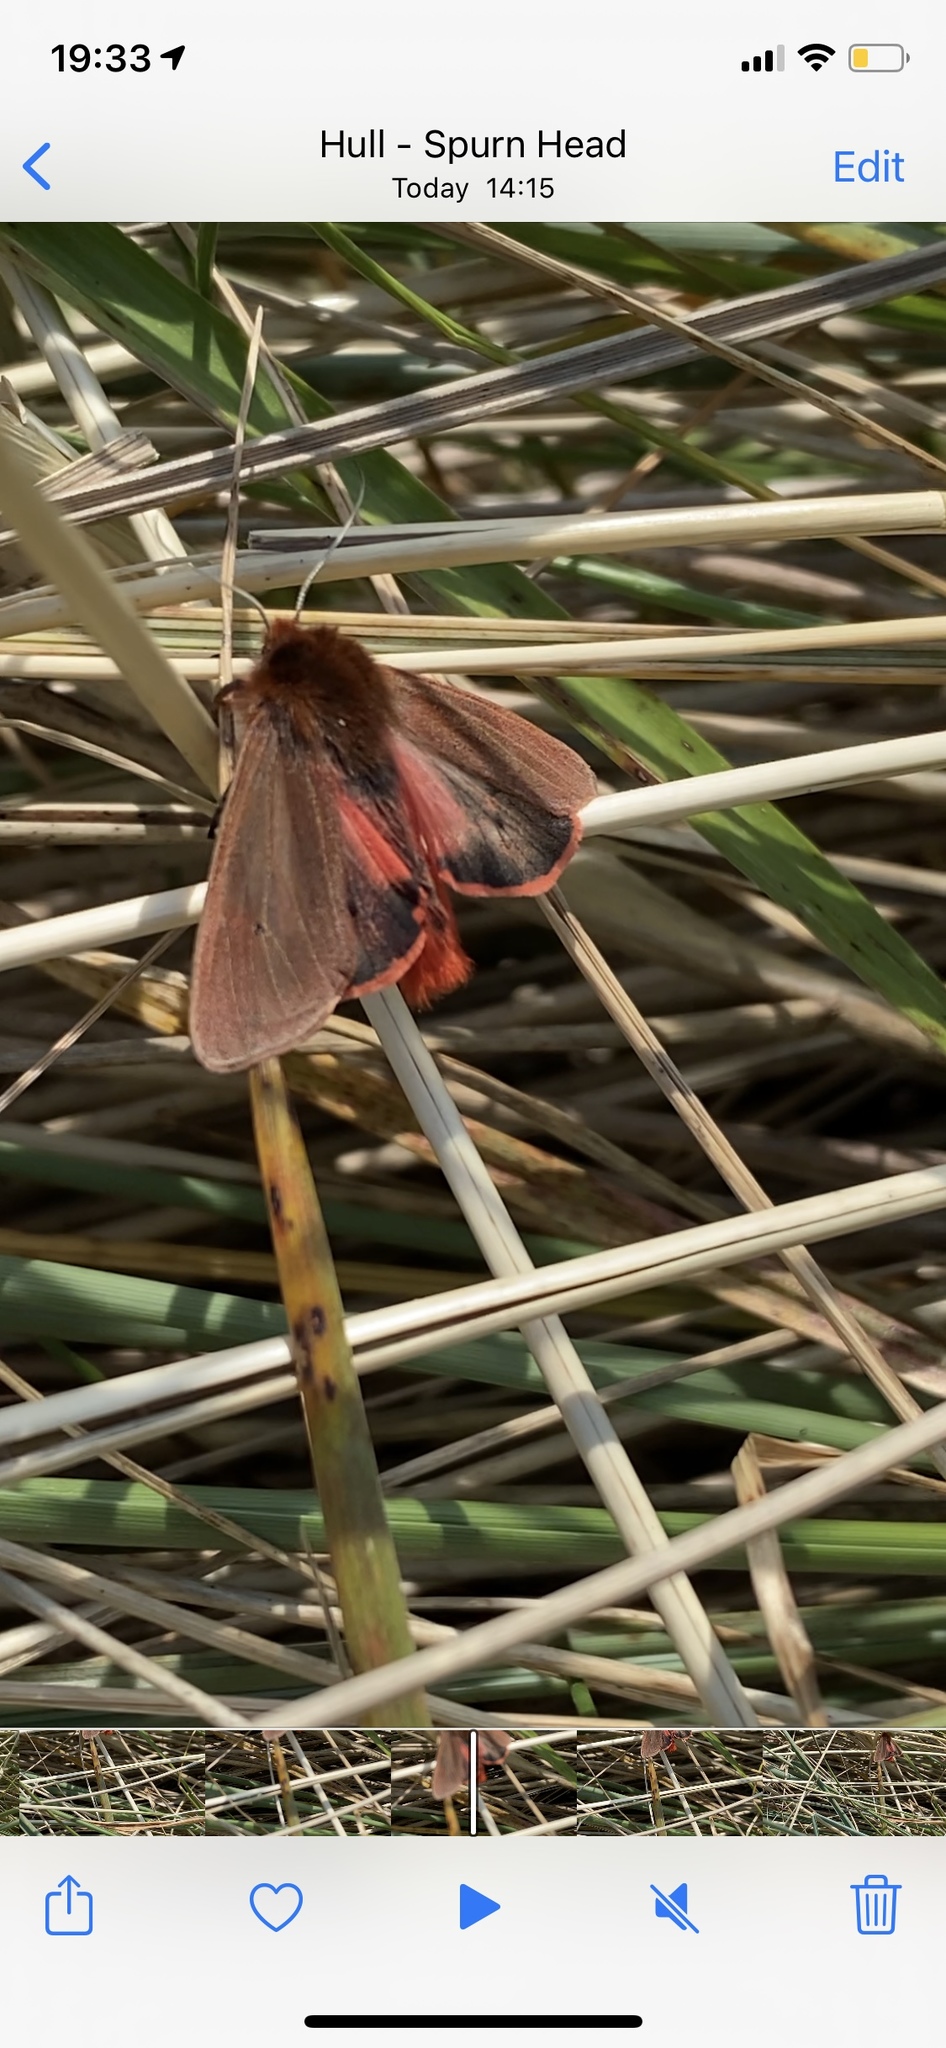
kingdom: Animalia
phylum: Arthropoda
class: Insecta
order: Lepidoptera
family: Erebidae
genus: Phragmatobia
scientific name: Phragmatobia fuliginosa
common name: Ruby tiger
